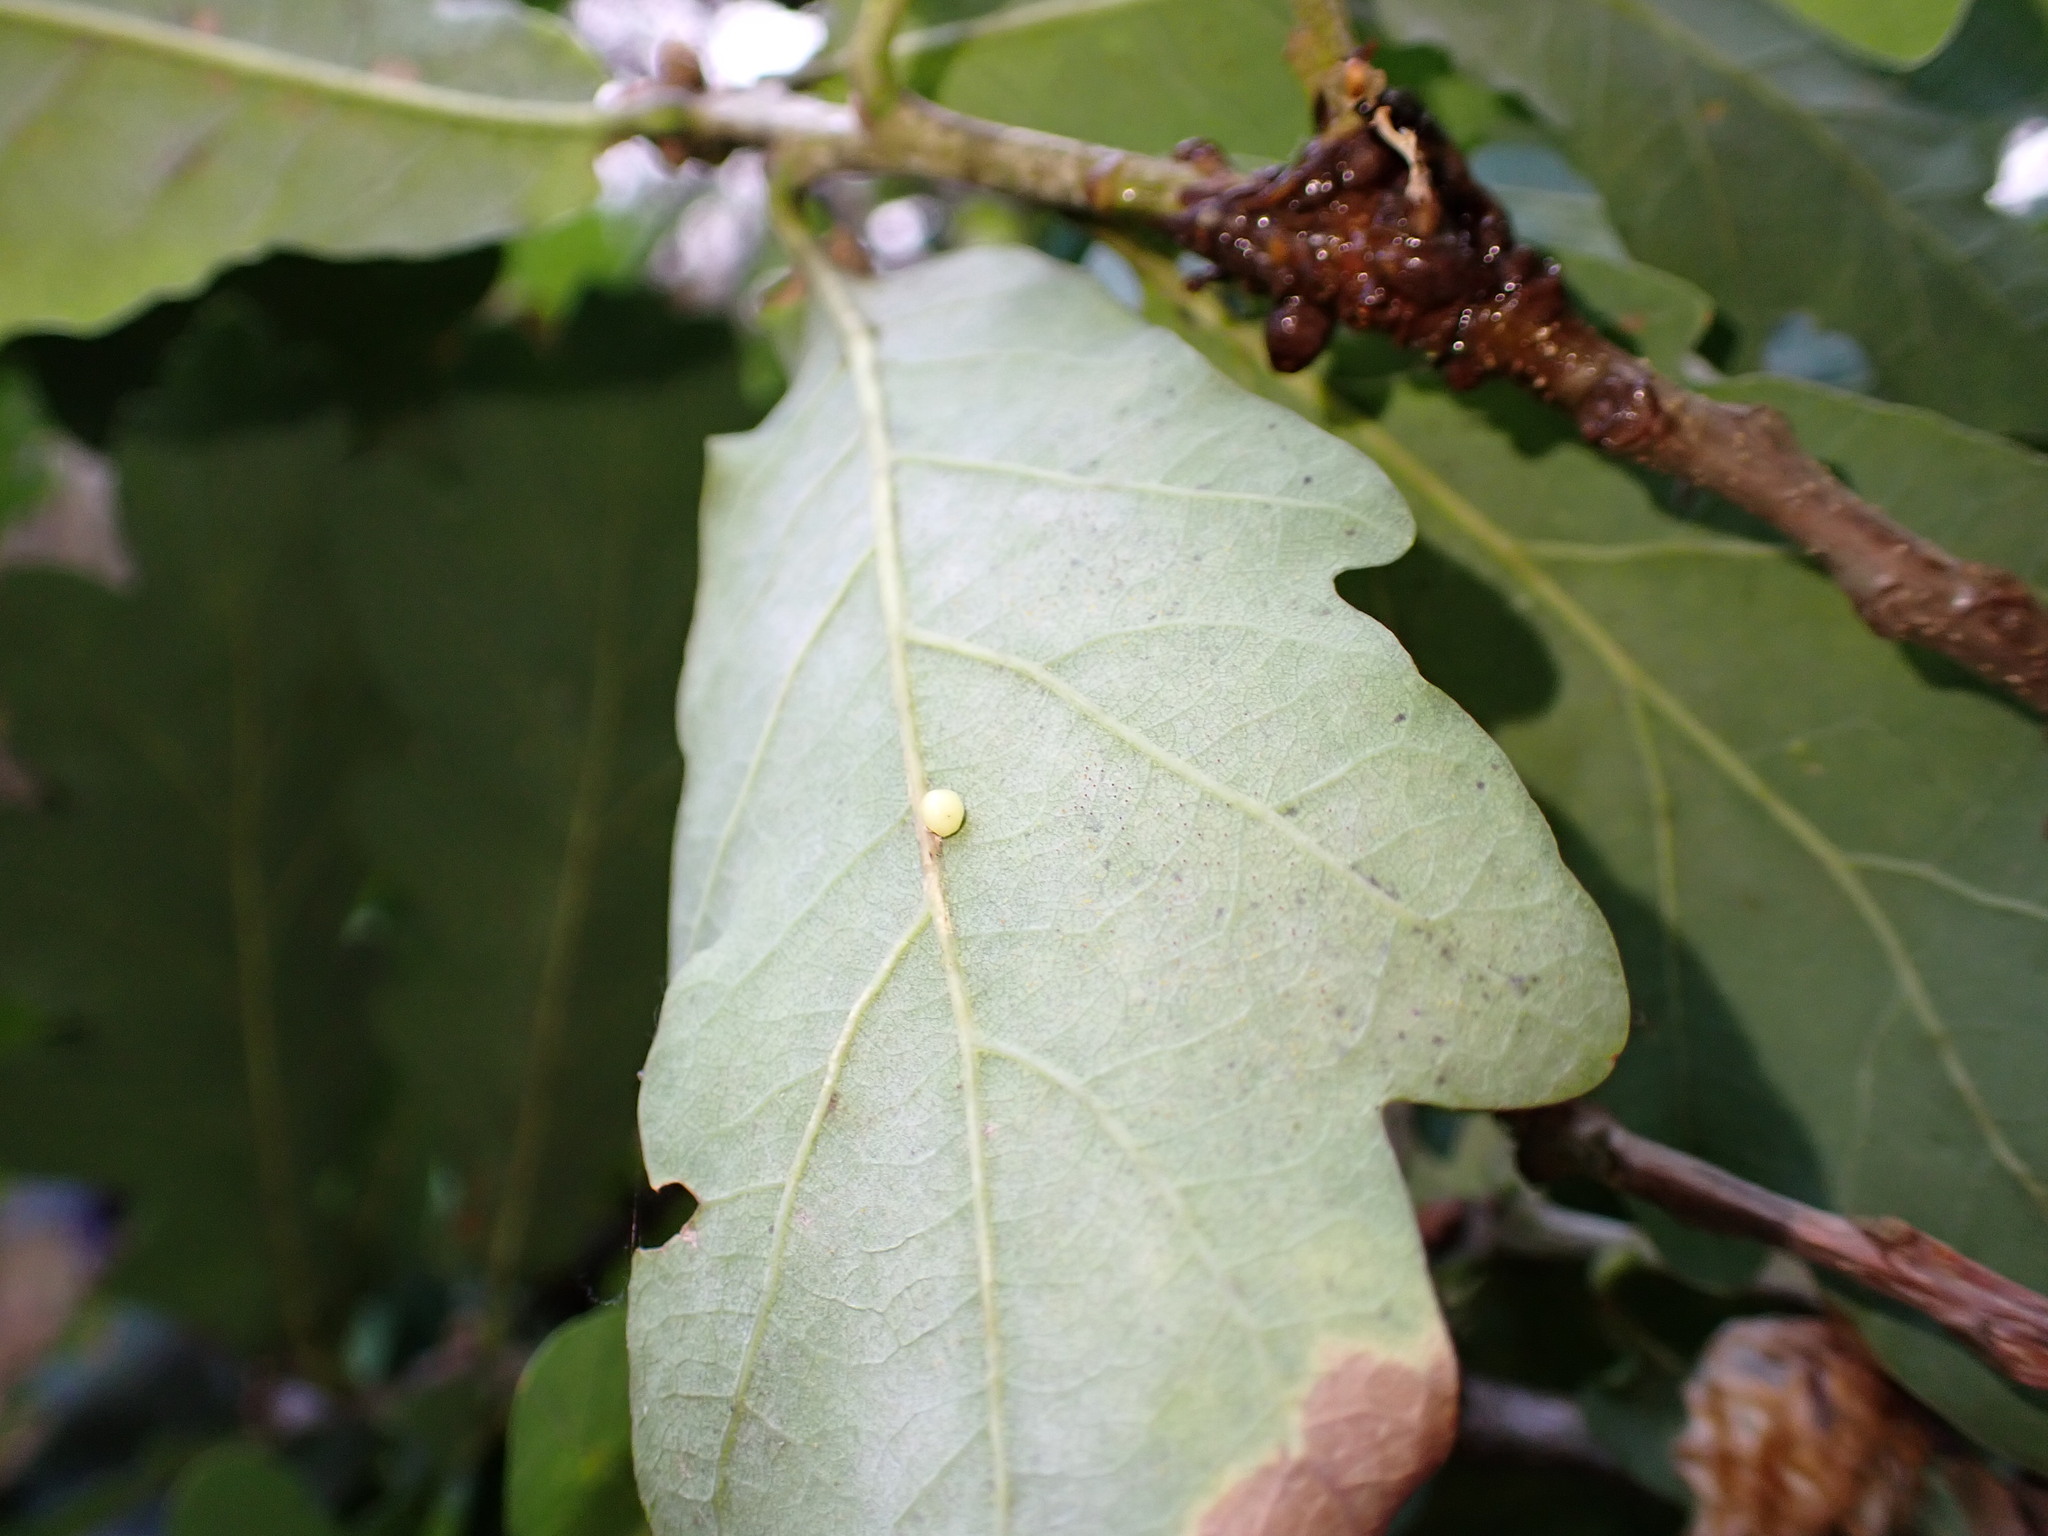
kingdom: Animalia
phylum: Arthropoda
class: Insecta
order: Hymenoptera
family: Cynipidae
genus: Neuroterus
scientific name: Neuroterus anthracinus
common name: Oyster gall
